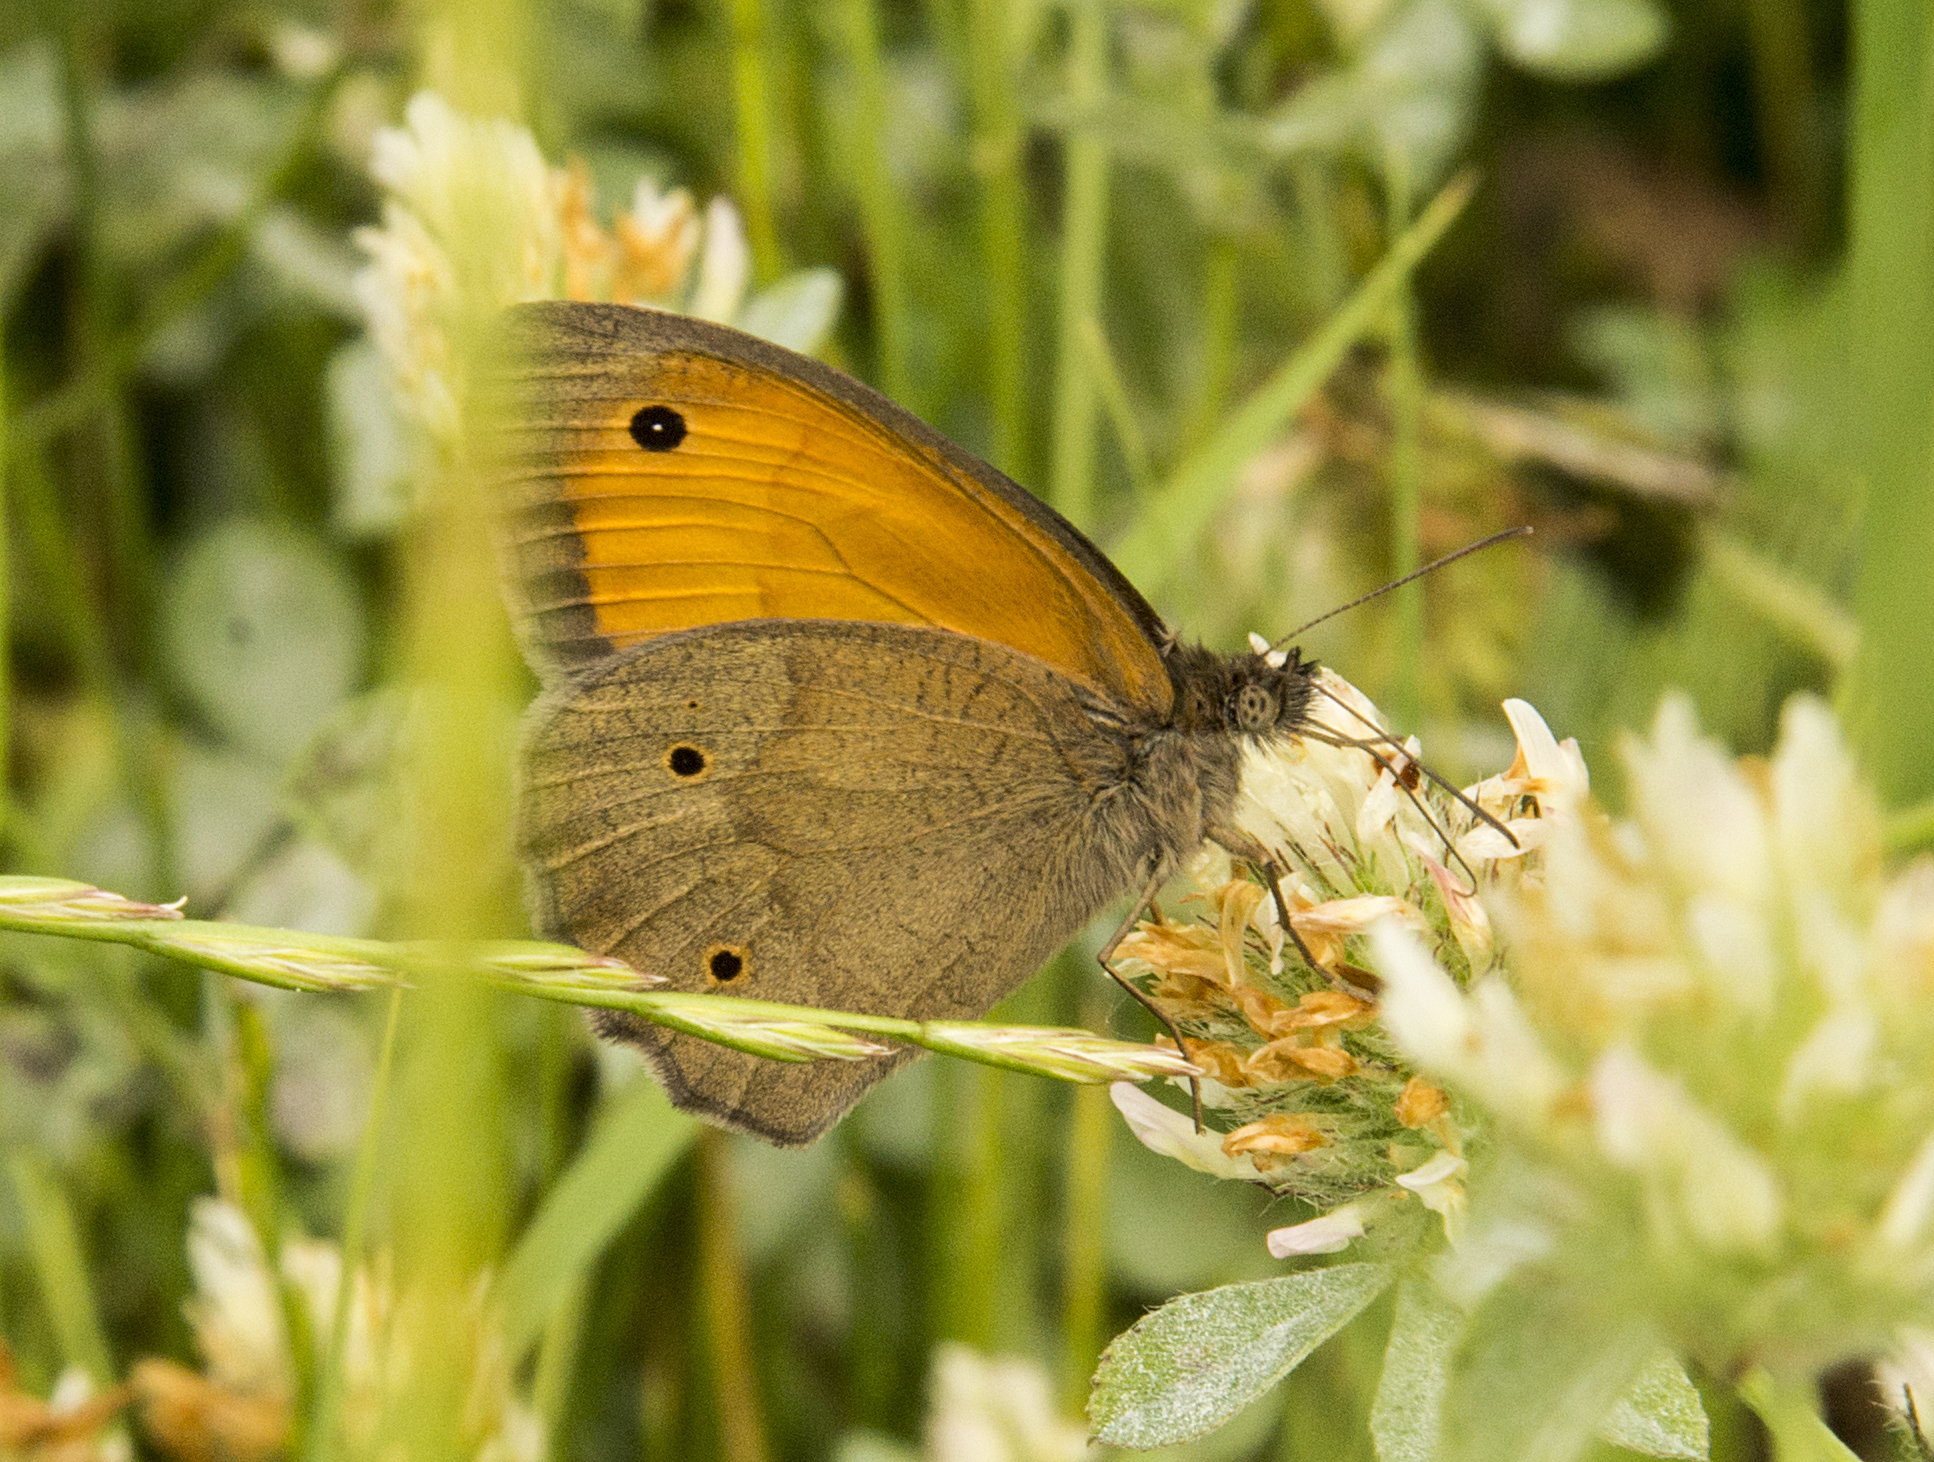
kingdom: Animalia
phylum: Arthropoda
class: Insecta
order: Lepidoptera
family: Nymphalidae
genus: Maniola
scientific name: Maniola jurtina
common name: Meadow brown
